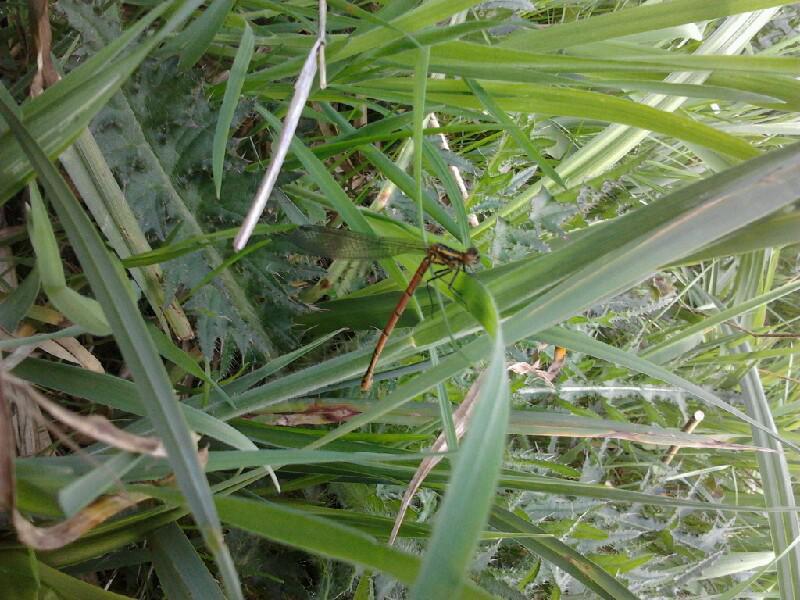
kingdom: Animalia
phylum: Arthropoda
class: Insecta
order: Odonata
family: Coenagrionidae
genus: Pyrrhosoma
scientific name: Pyrrhosoma nymphula
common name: Large red damsel
